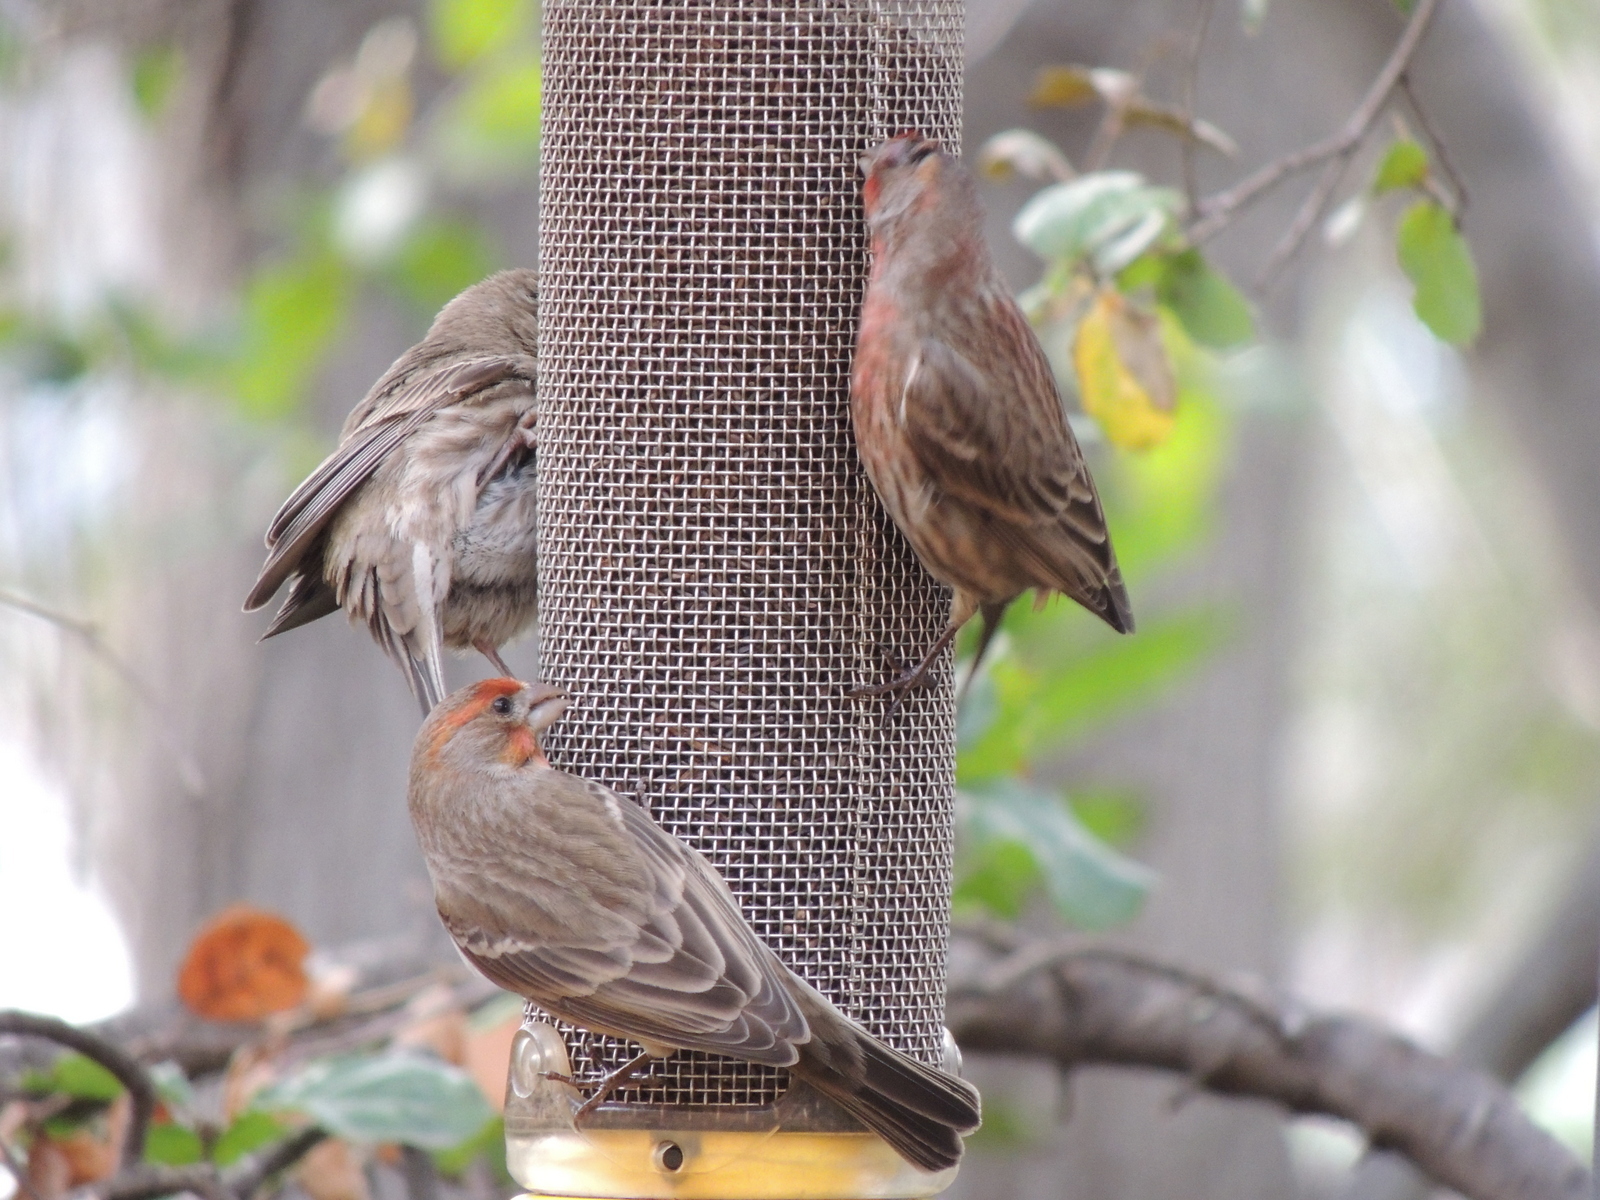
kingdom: Animalia
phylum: Chordata
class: Aves
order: Passeriformes
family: Fringillidae
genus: Haemorhous
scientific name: Haemorhous mexicanus
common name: House finch
